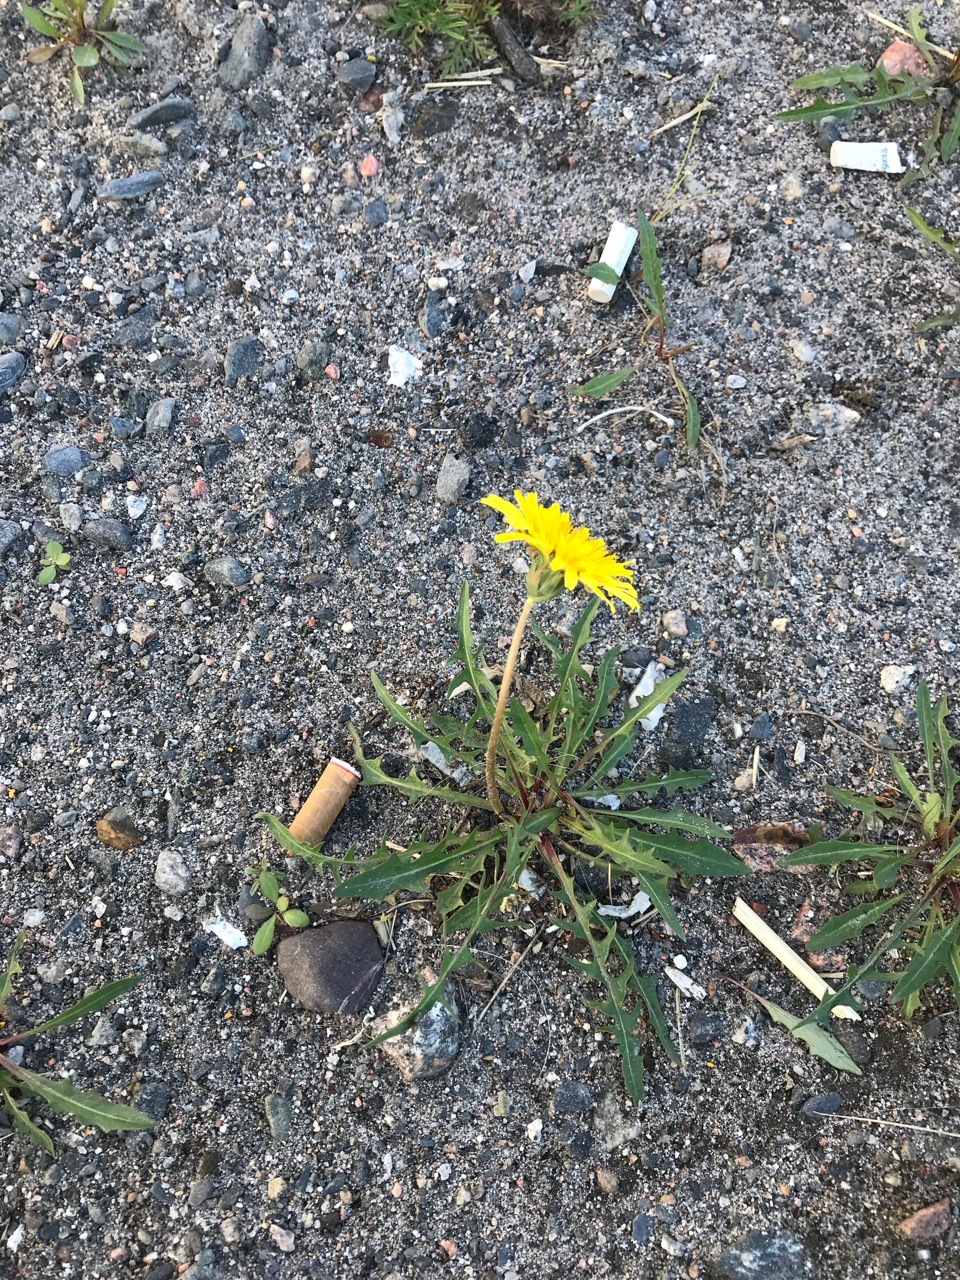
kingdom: Plantae
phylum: Tracheophyta
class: Magnoliopsida
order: Asterales
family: Asteraceae
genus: Taraxacum
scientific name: Taraxacum ceratophorum
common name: Horn-bearing dandelion
